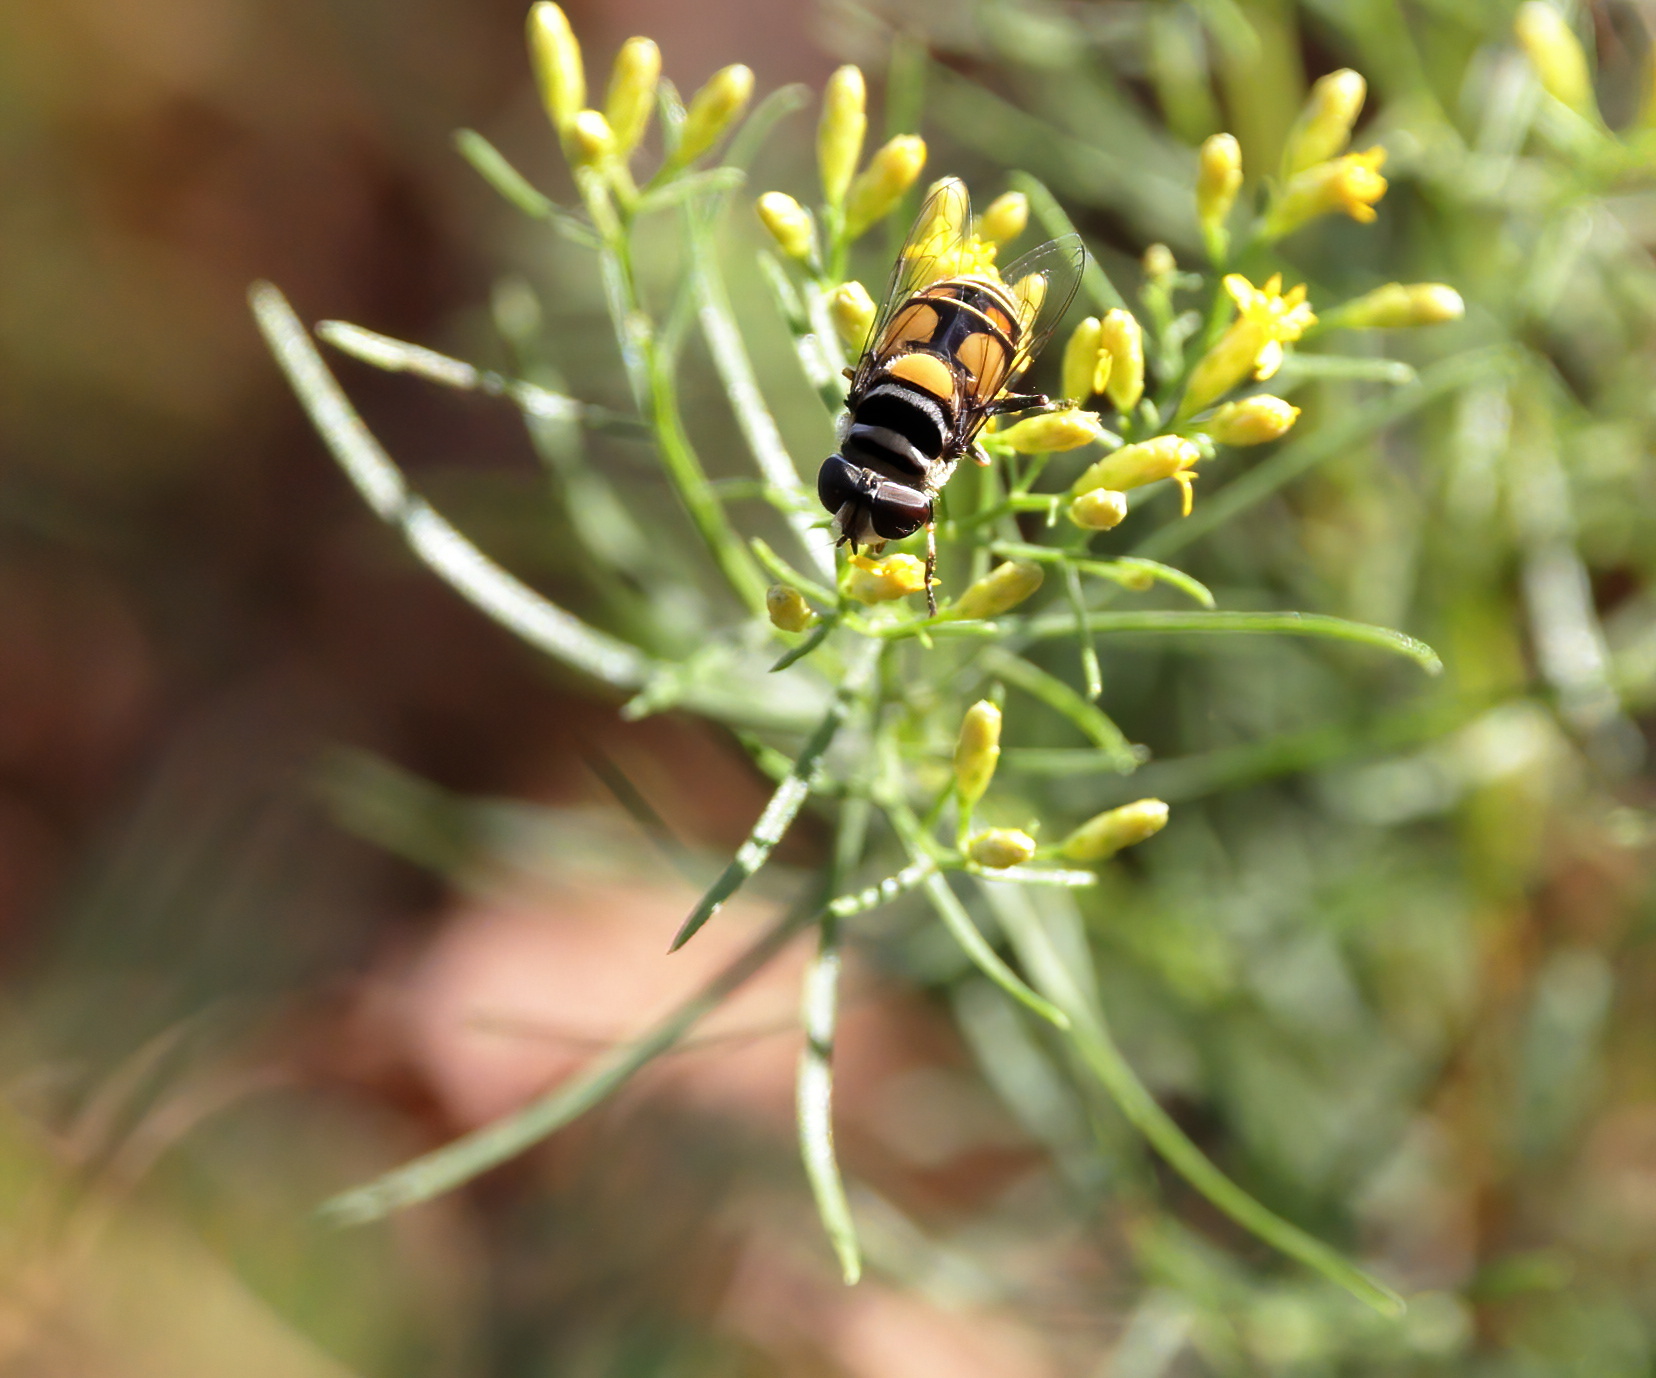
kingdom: Animalia
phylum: Arthropoda
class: Insecta
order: Diptera
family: Syrphidae
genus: Palpada
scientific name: Palpada agrorum
